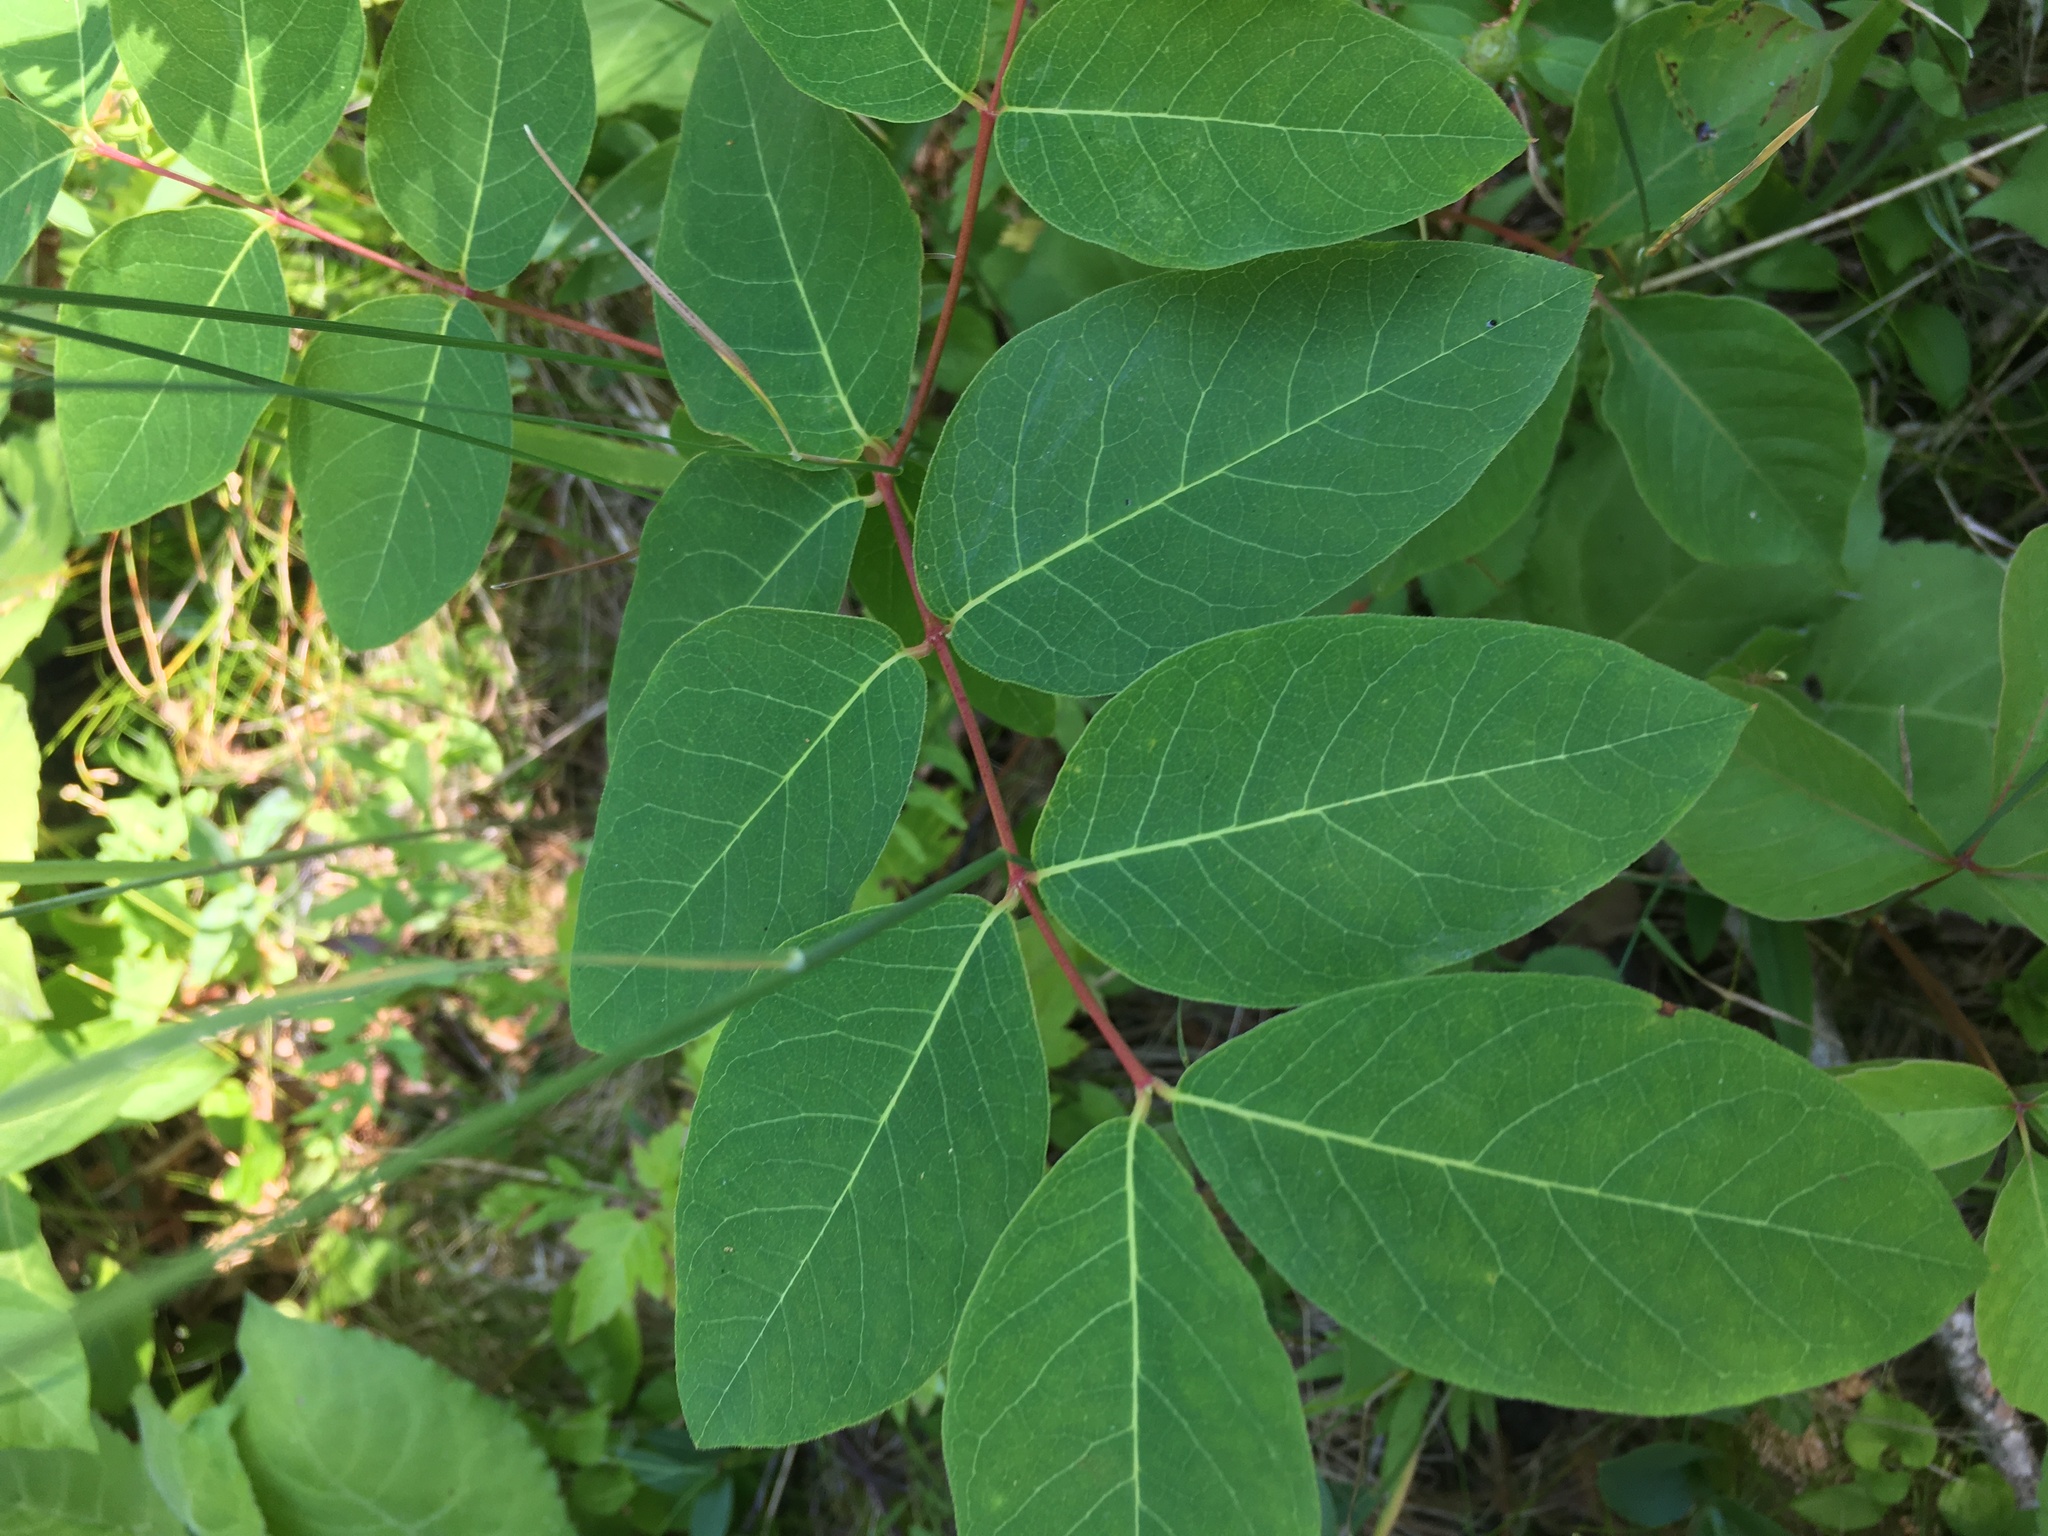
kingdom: Plantae
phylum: Tracheophyta
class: Magnoliopsida
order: Gentianales
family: Apocynaceae
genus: Apocynum
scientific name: Apocynum androsaemifolium
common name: Spreading dogbane
